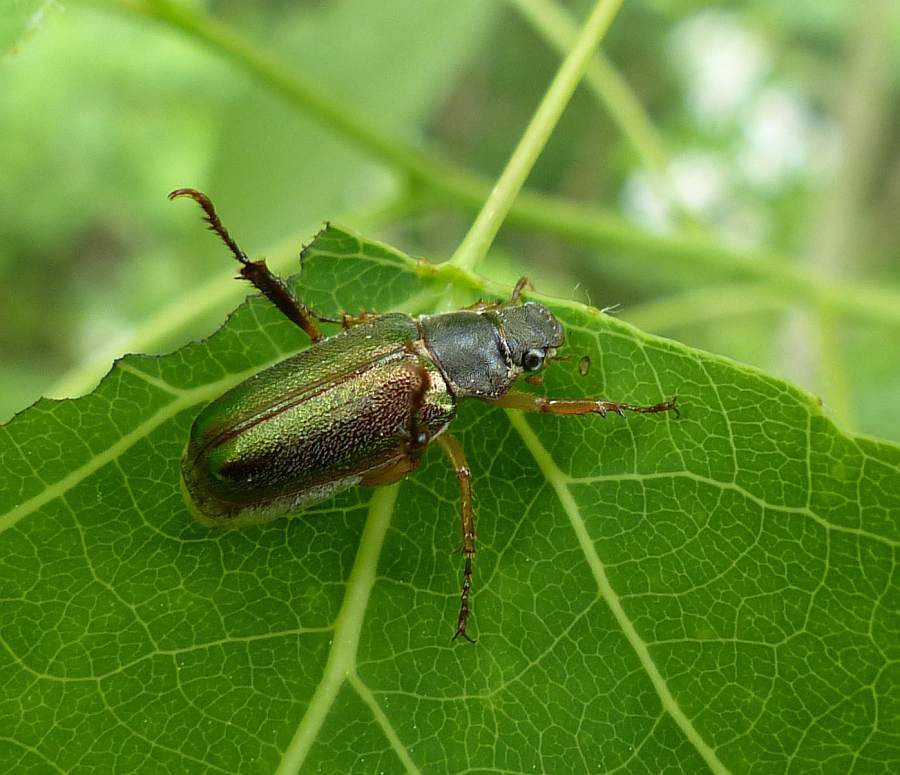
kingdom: Animalia
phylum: Arthropoda
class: Insecta
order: Coleoptera
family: Scarabaeidae
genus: Dichelonyx
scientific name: Dichelonyx linearis
